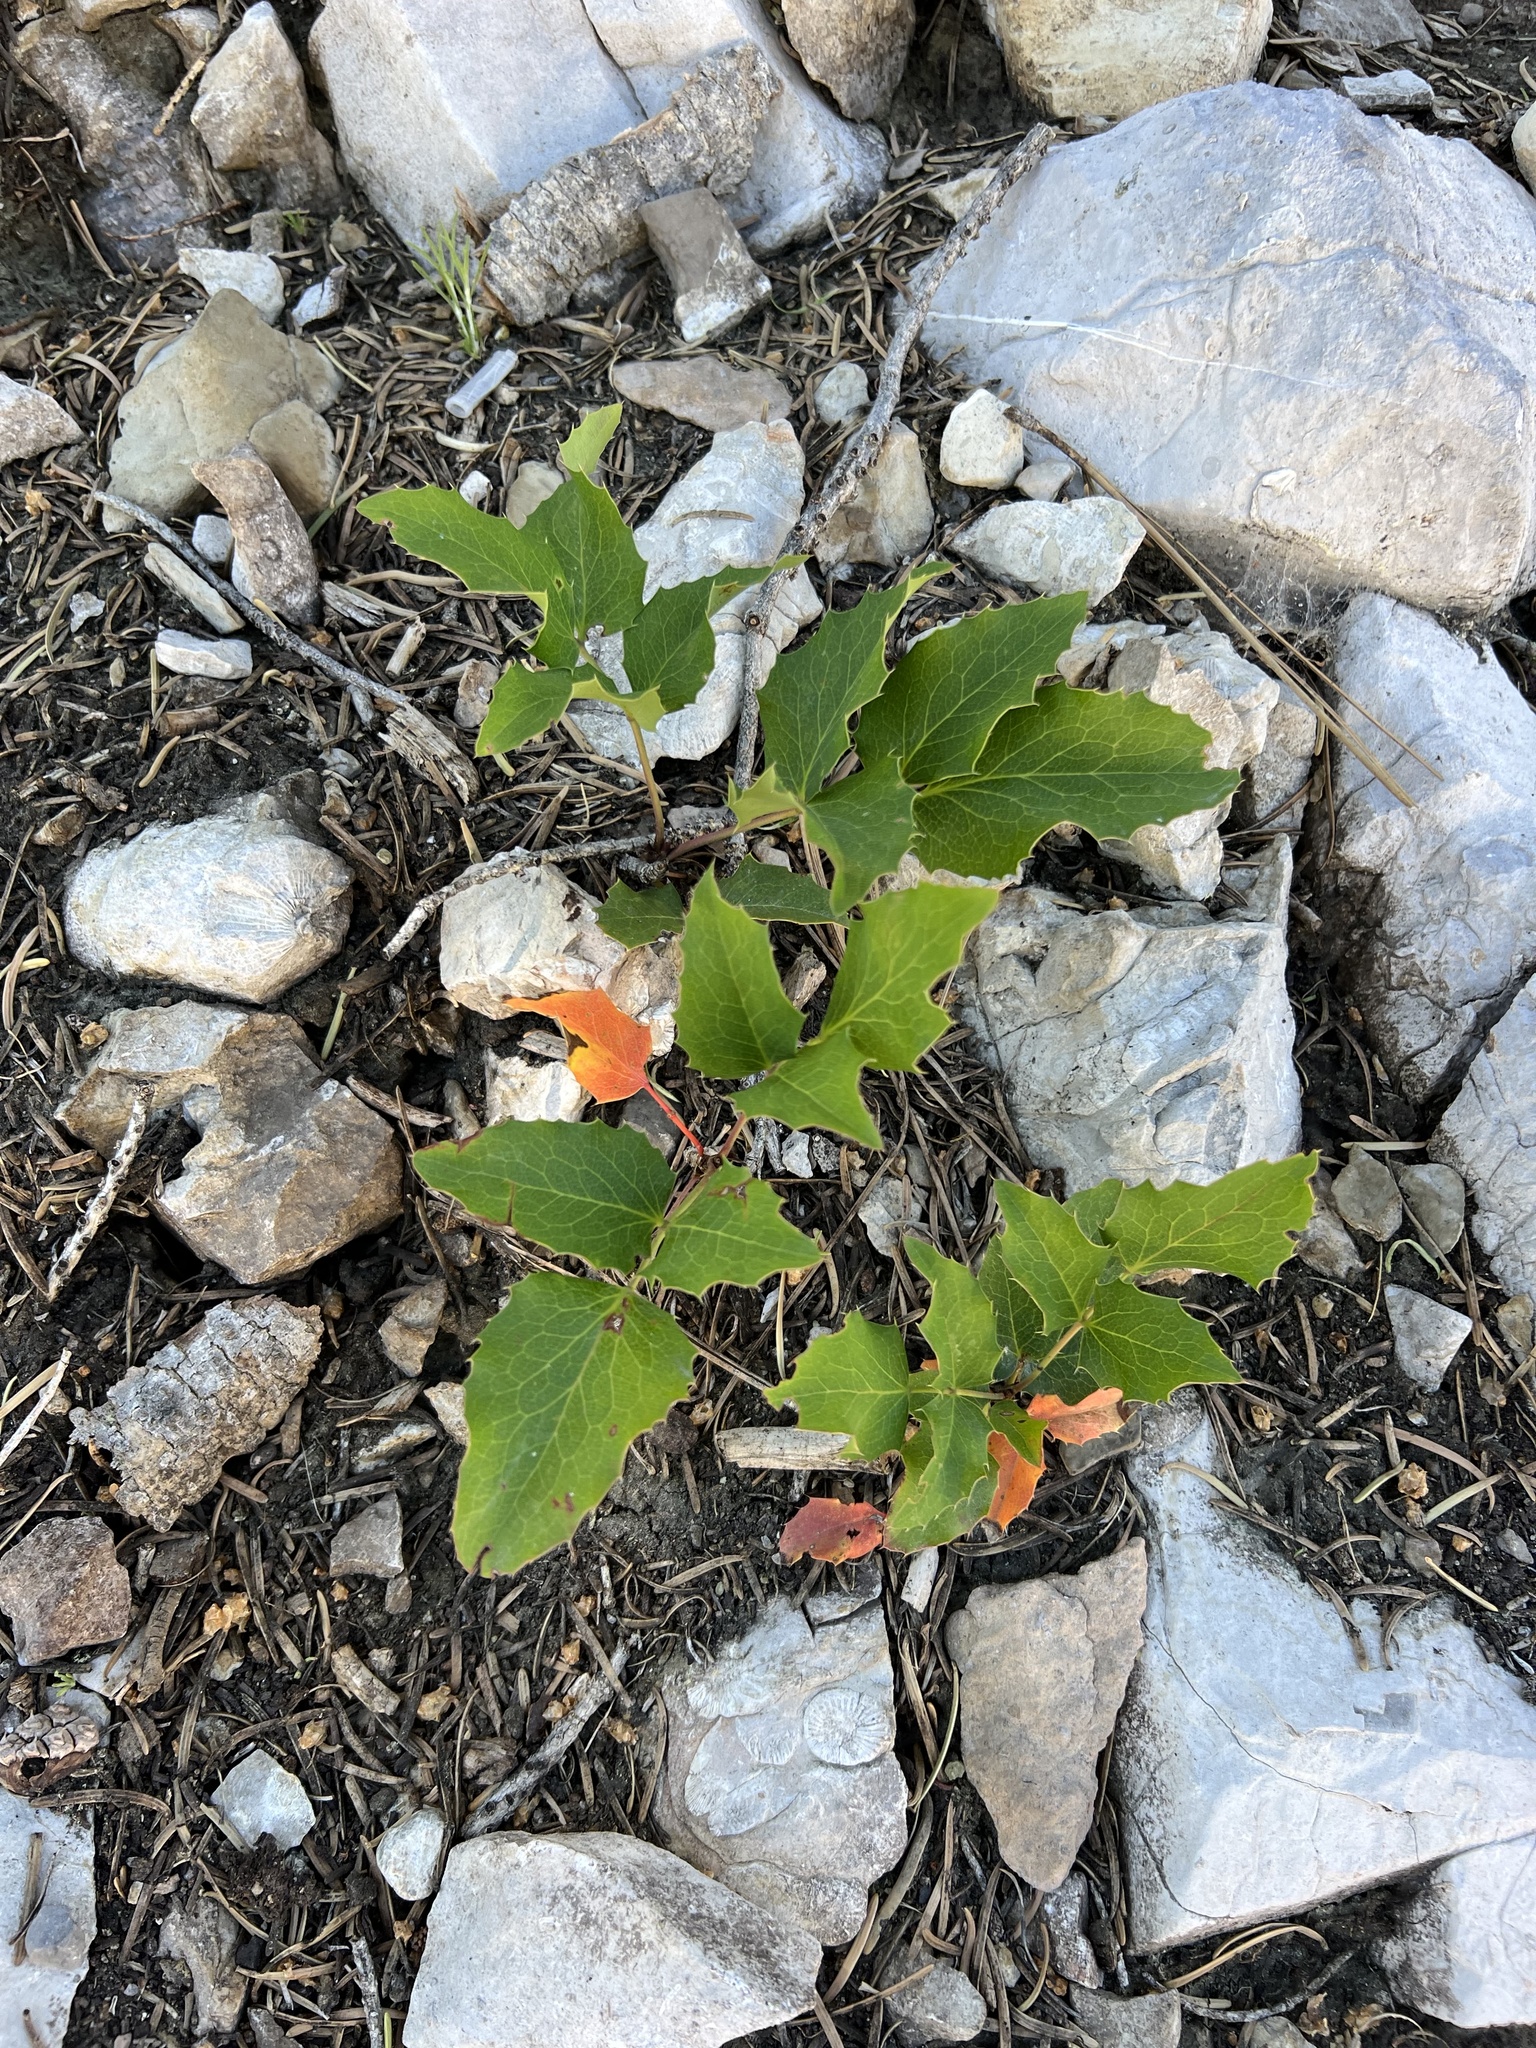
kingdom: Plantae
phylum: Tracheophyta
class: Magnoliopsida
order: Ranunculales
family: Berberidaceae
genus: Mahonia
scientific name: Mahonia repens
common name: Creeping oregon-grape
